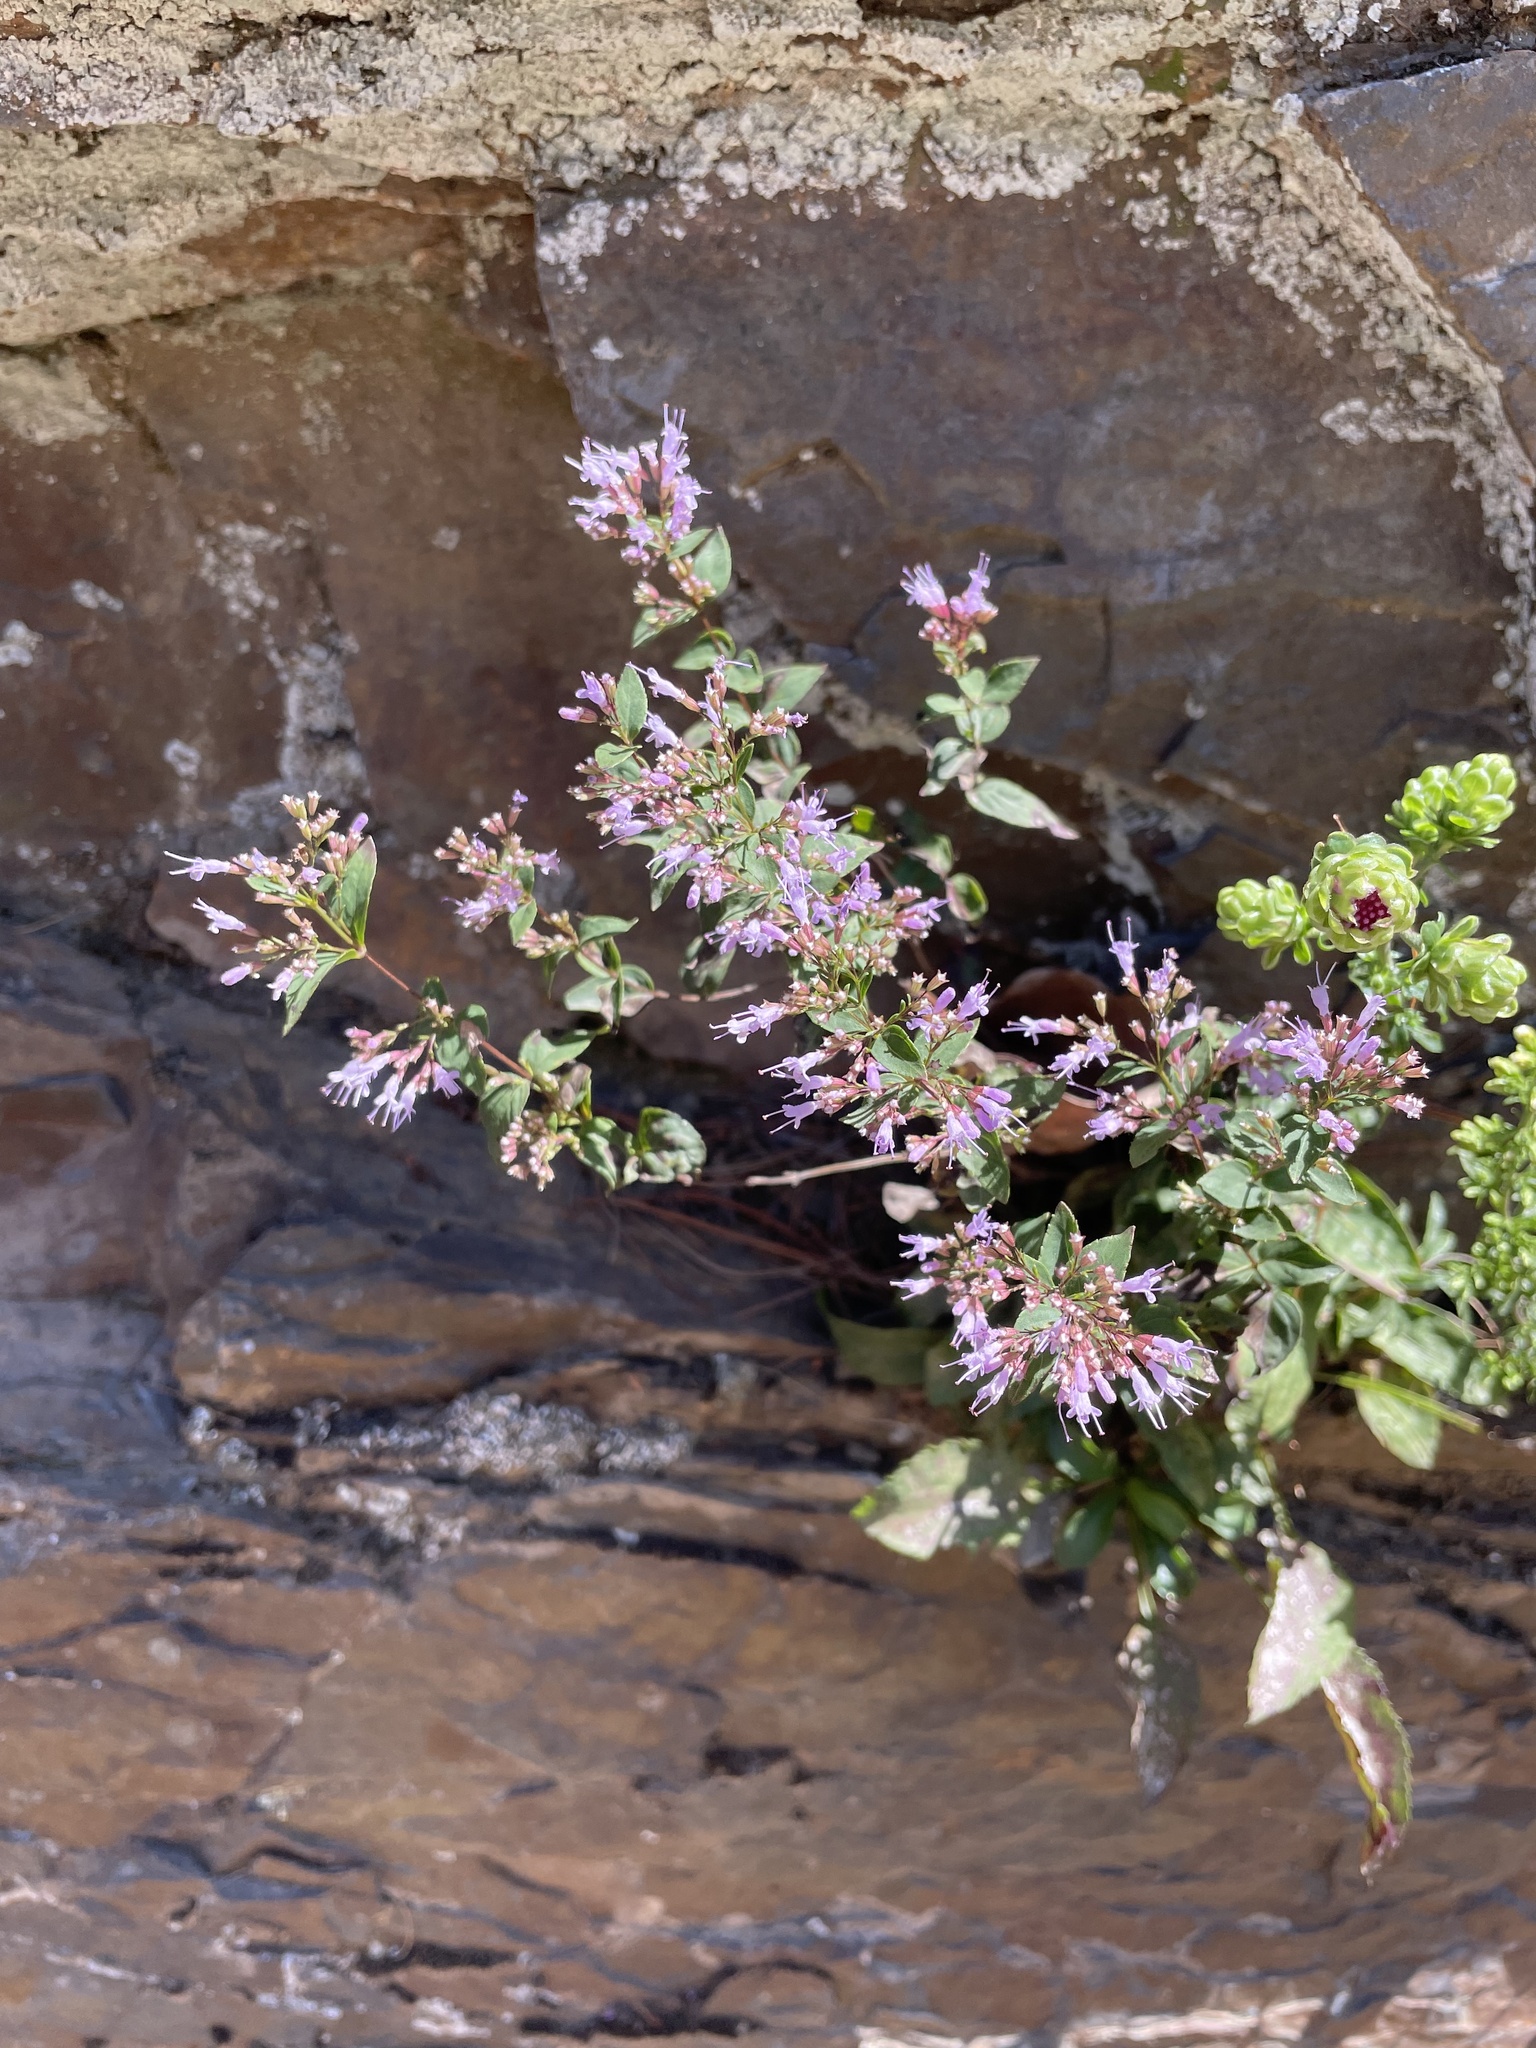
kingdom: Plantae
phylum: Tracheophyta
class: Magnoliopsida
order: Lamiales
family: Lamiaceae
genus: Cunila
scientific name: Cunila origanoides
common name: American dittany
